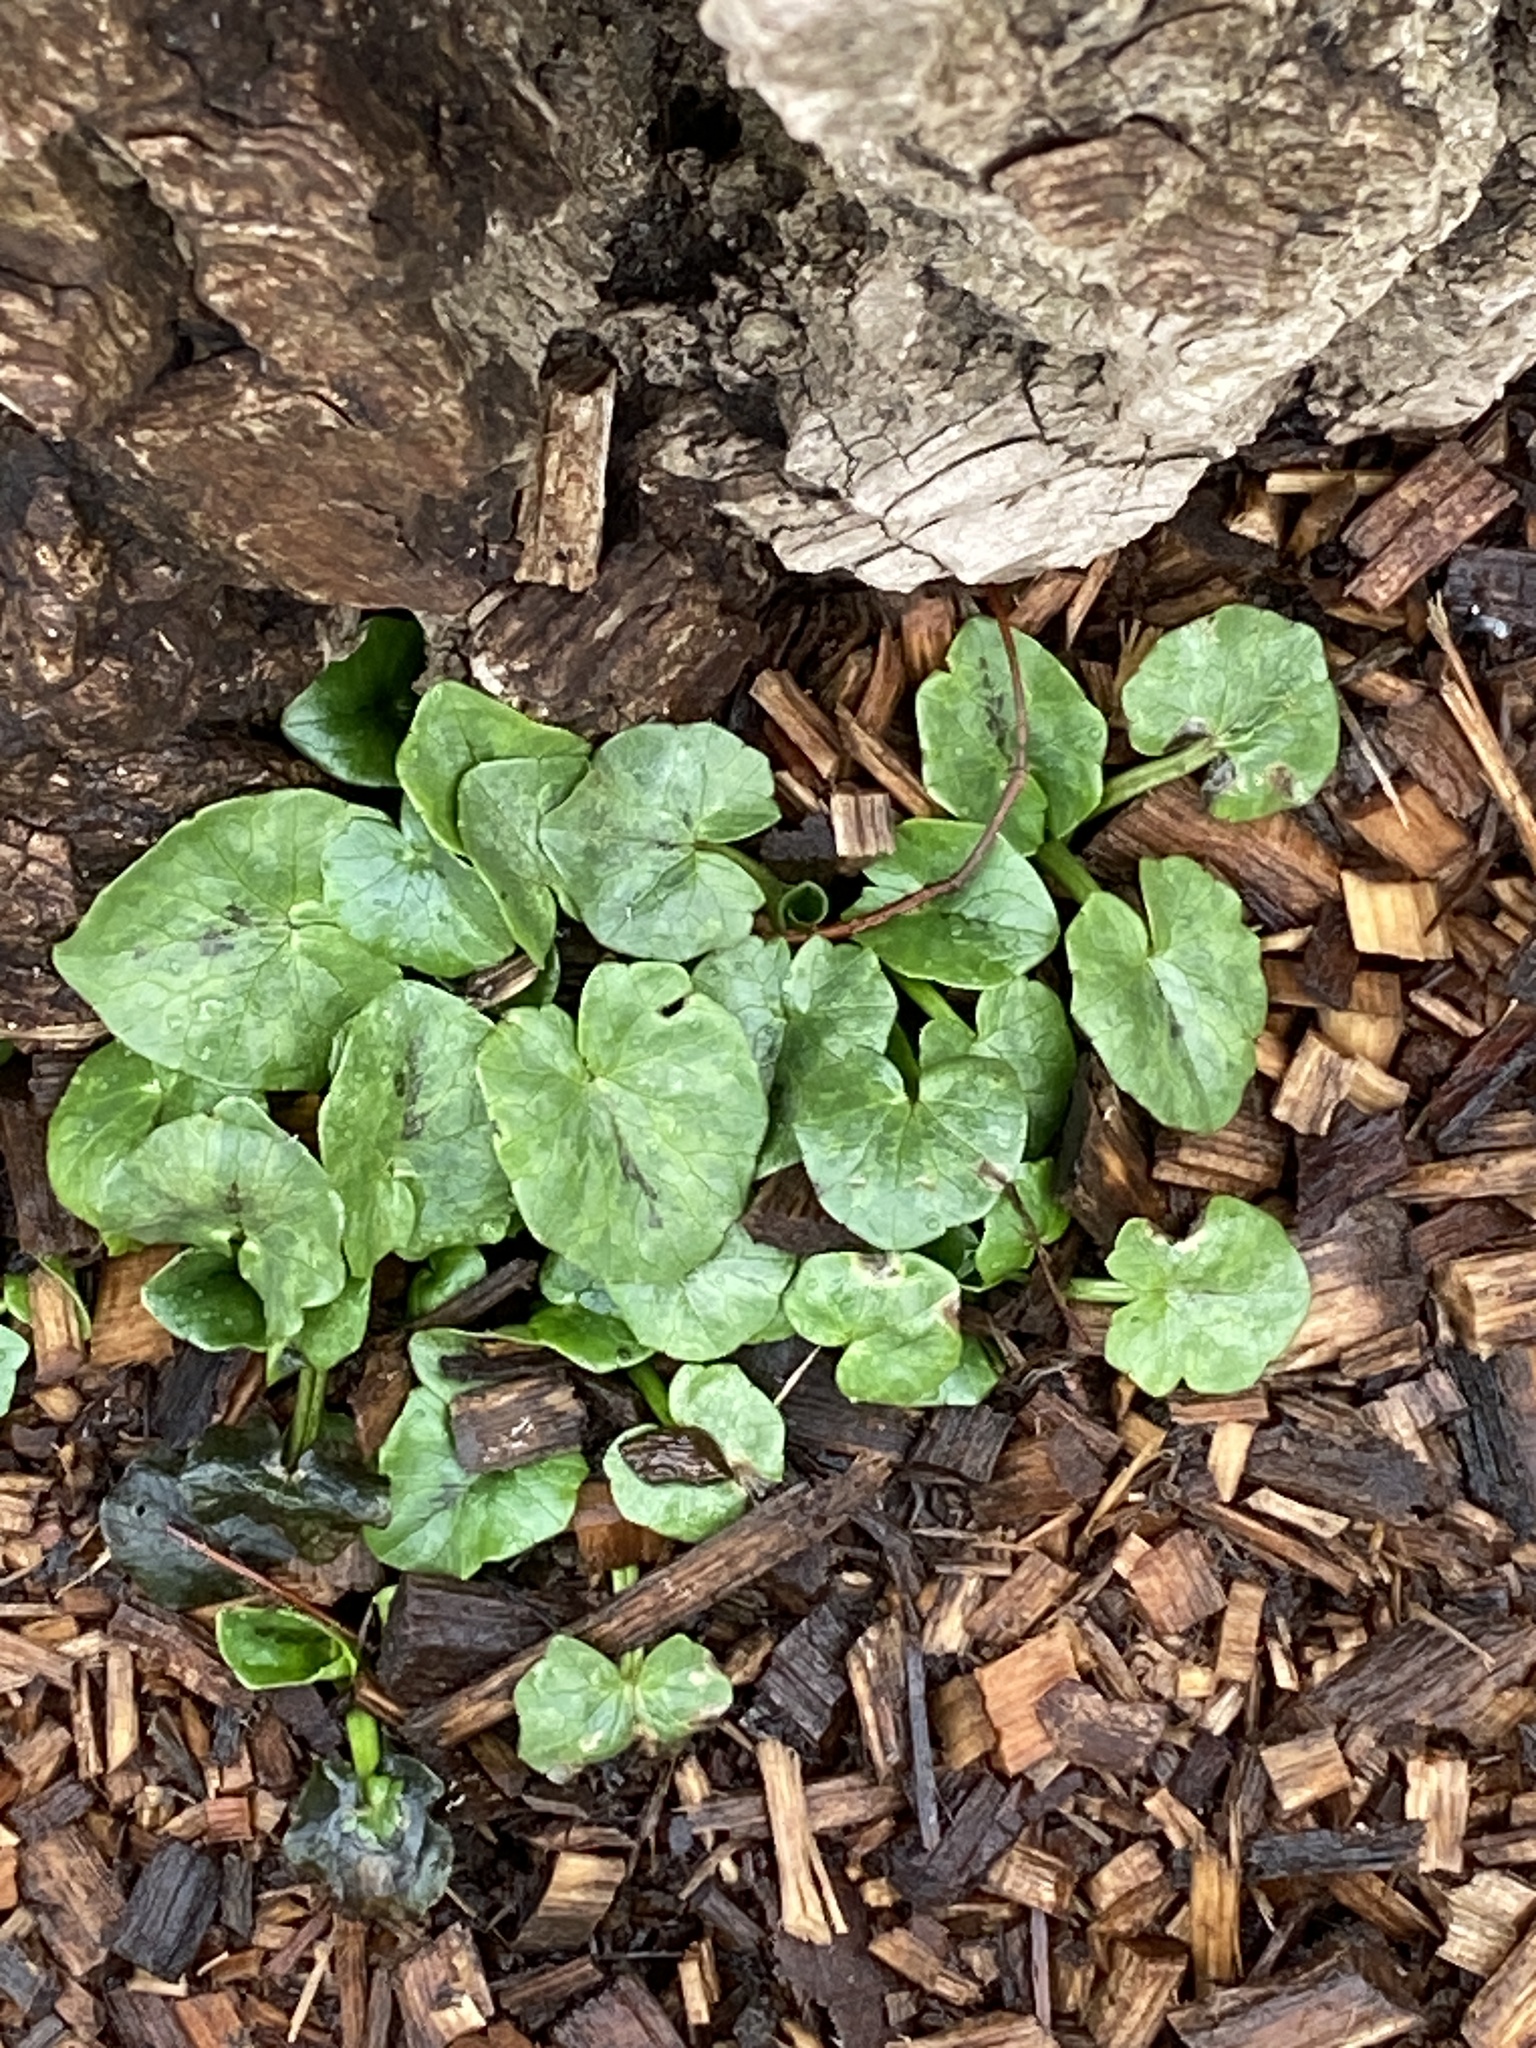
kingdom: Plantae
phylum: Tracheophyta
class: Magnoliopsida
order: Ranunculales
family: Ranunculaceae
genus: Ficaria
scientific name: Ficaria verna
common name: Lesser celandine
